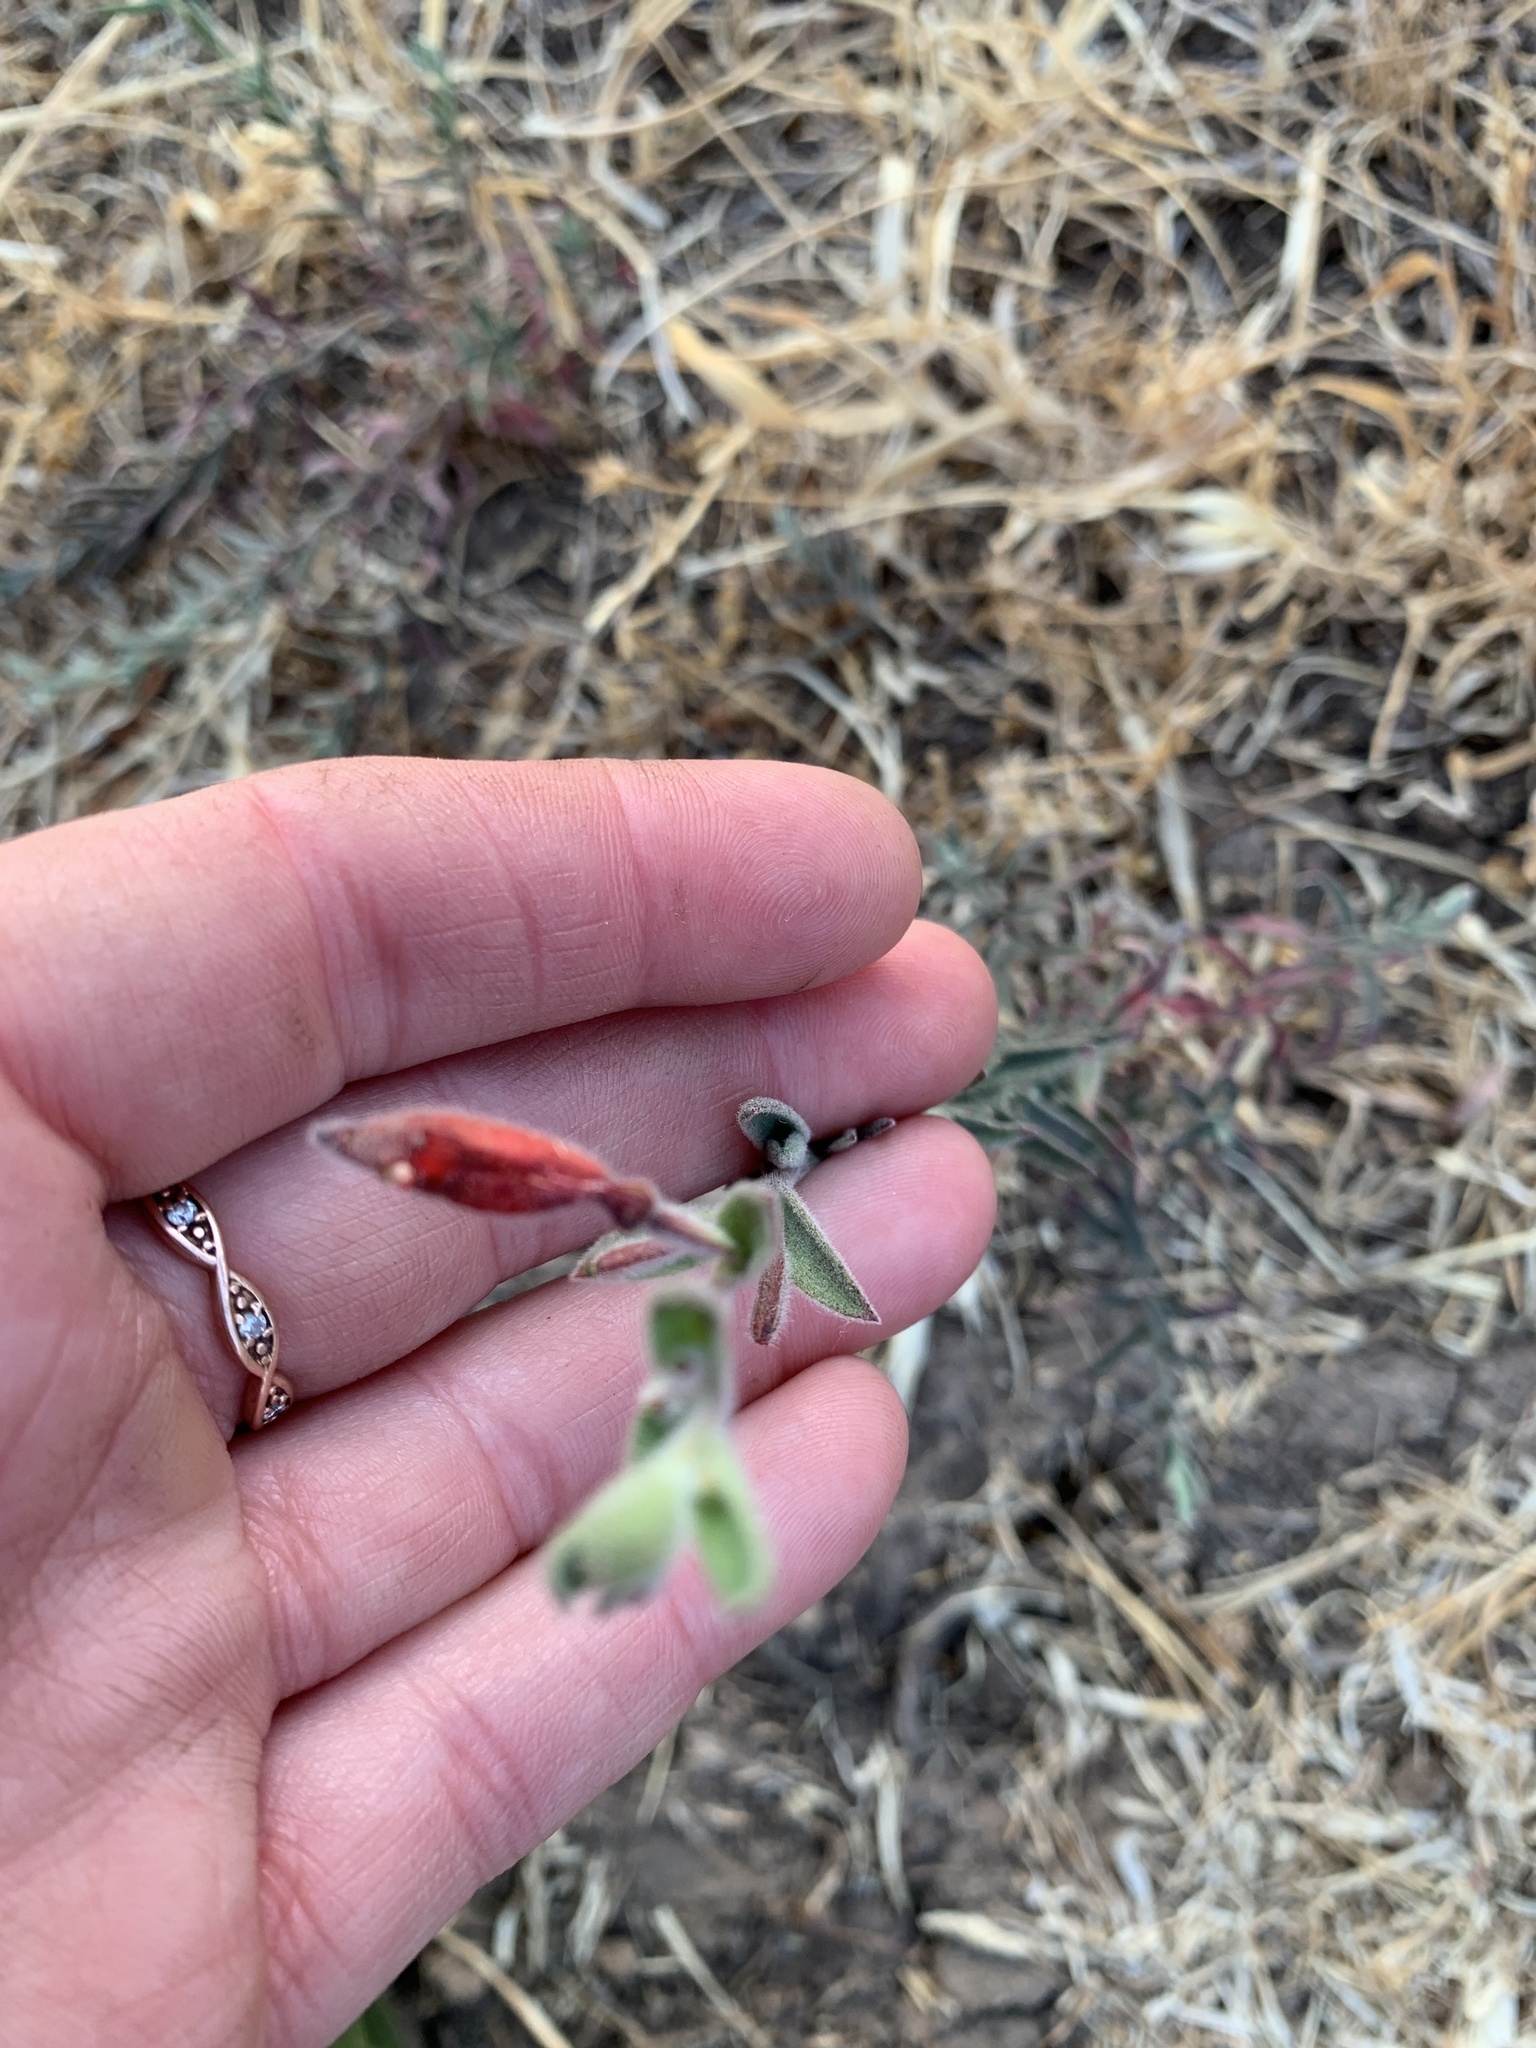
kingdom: Plantae
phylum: Tracheophyta
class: Magnoliopsida
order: Myrtales
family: Onagraceae
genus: Epilobium
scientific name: Epilobium canum
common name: California-fuchsia
